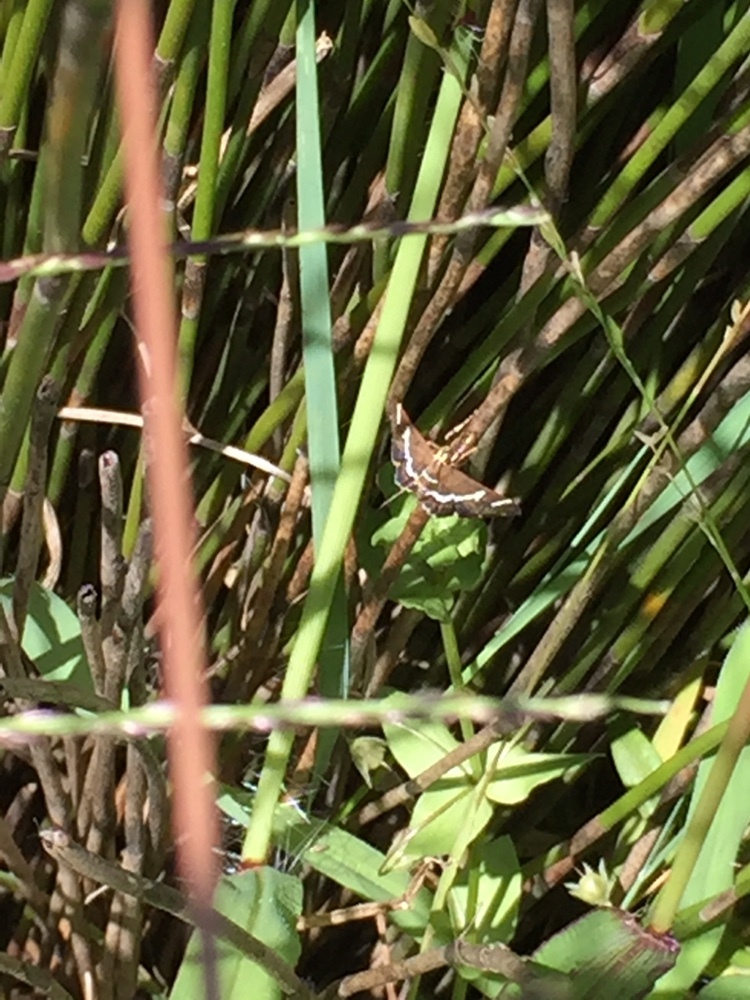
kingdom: Animalia
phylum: Arthropoda
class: Insecta
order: Lepidoptera
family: Crambidae
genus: Spoladea
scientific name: Spoladea recurvalis
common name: Beet webworm moth
